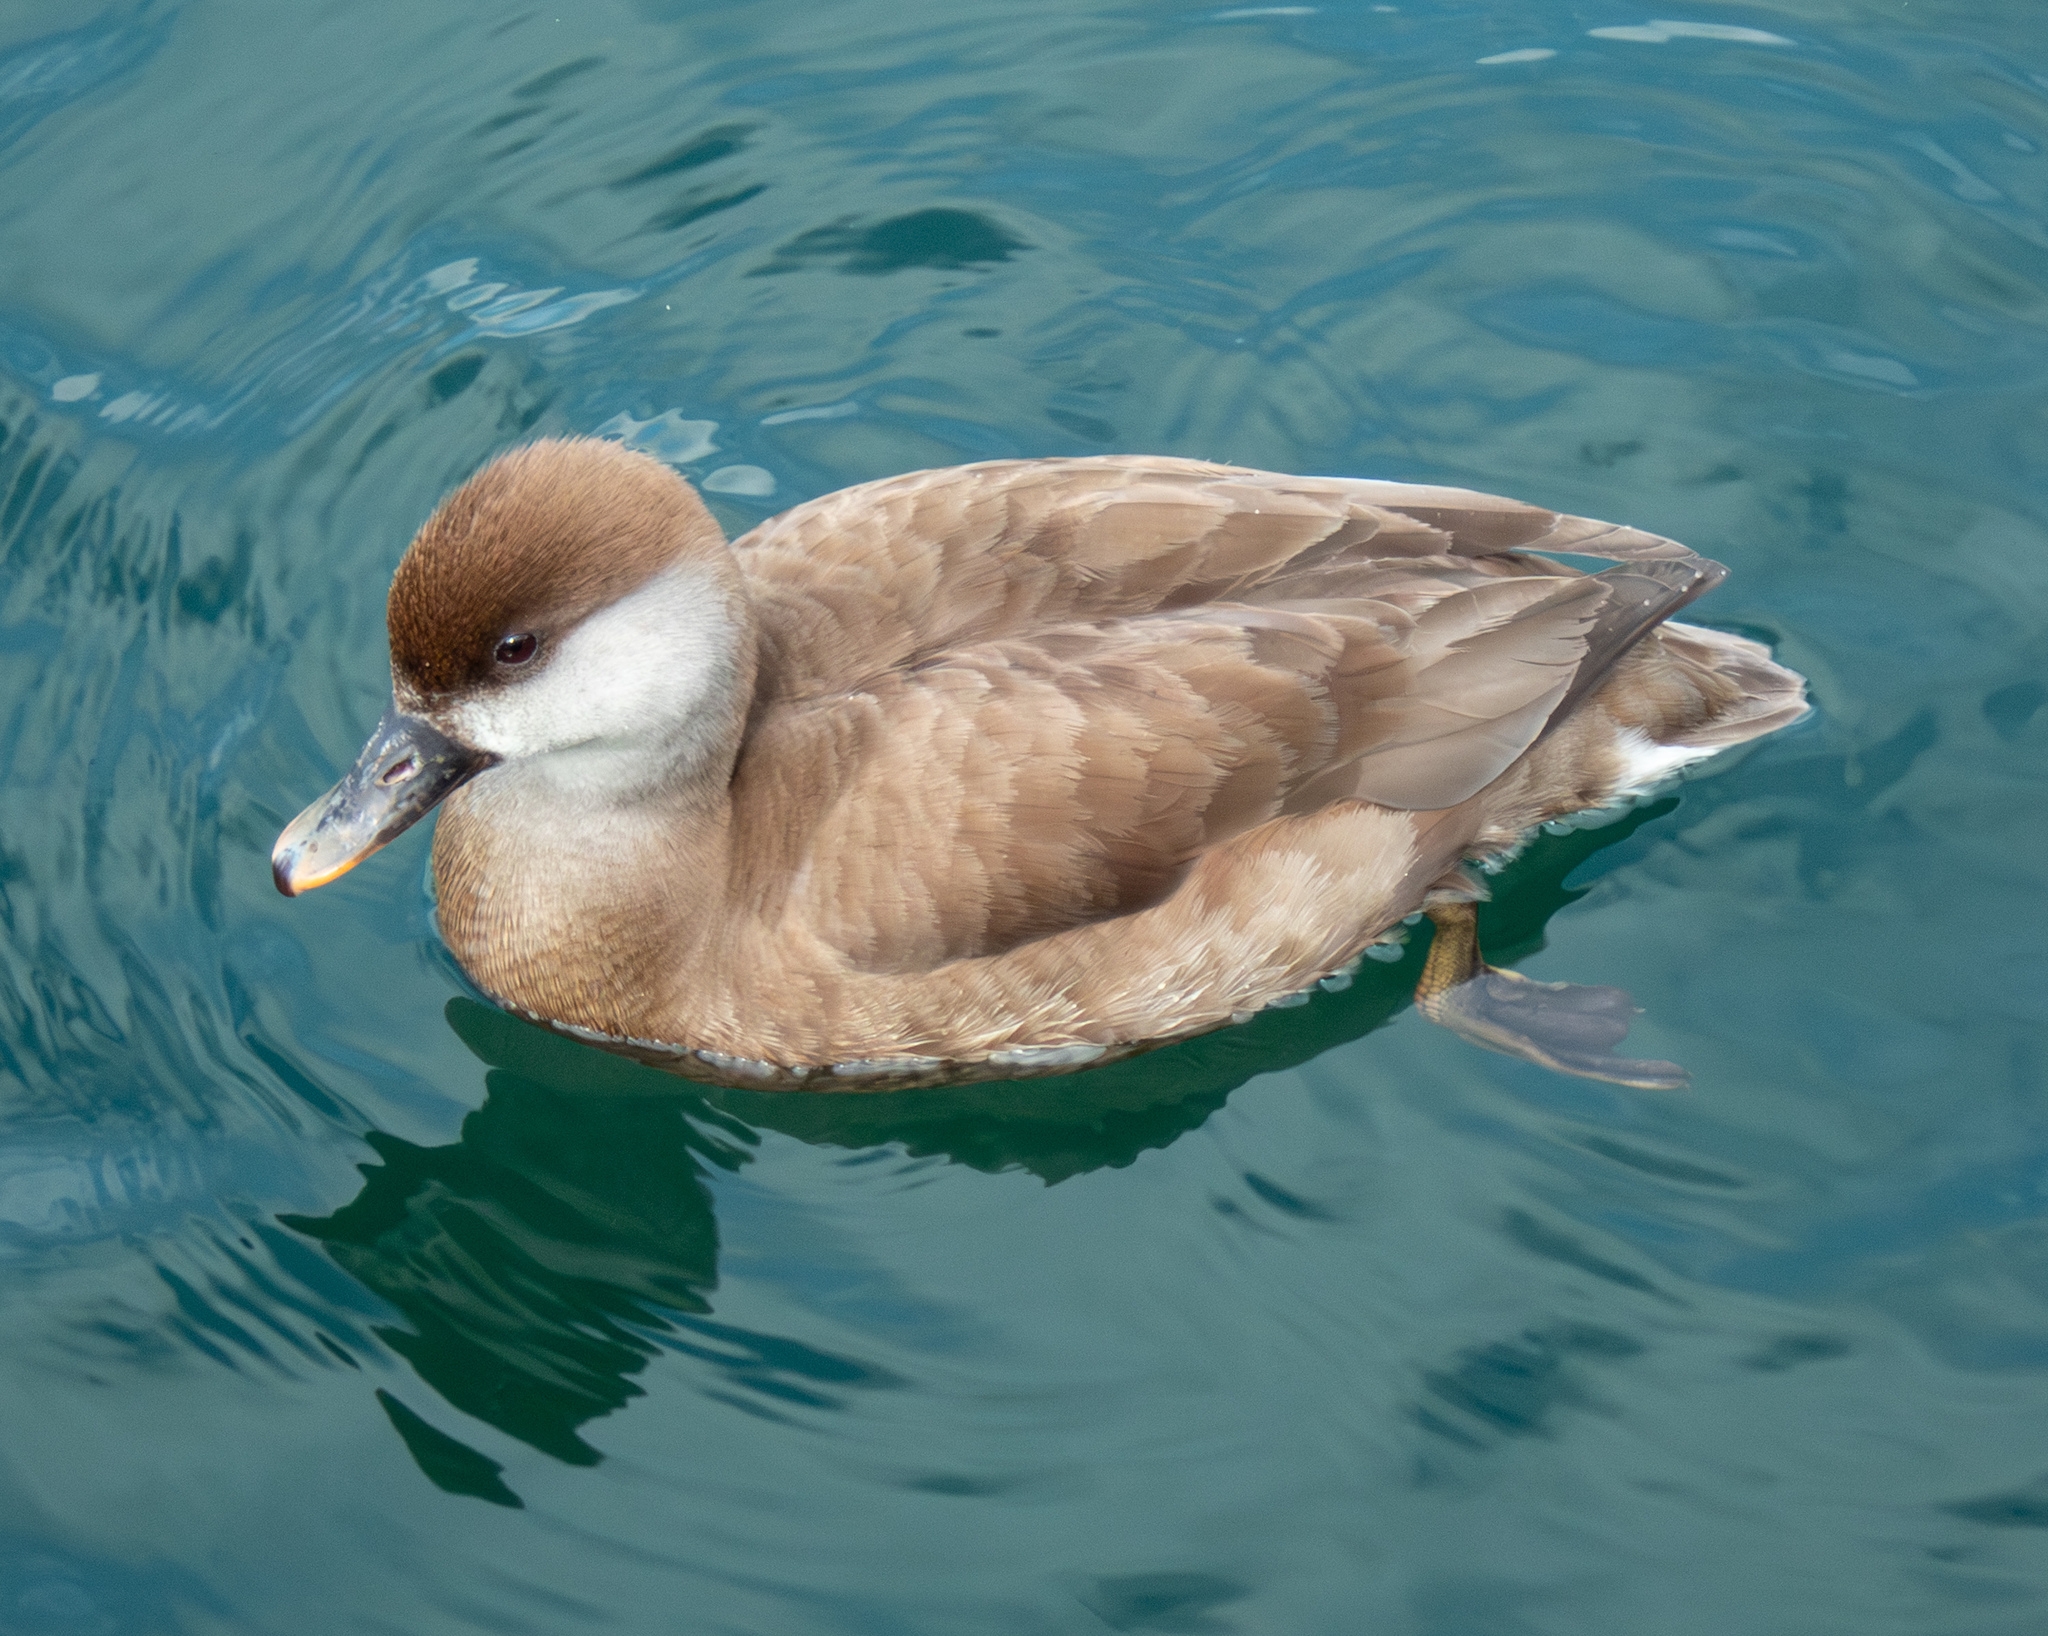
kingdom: Animalia
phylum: Chordata
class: Aves
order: Anseriformes
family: Anatidae
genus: Netta
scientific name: Netta rufina
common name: Red-crested pochard
